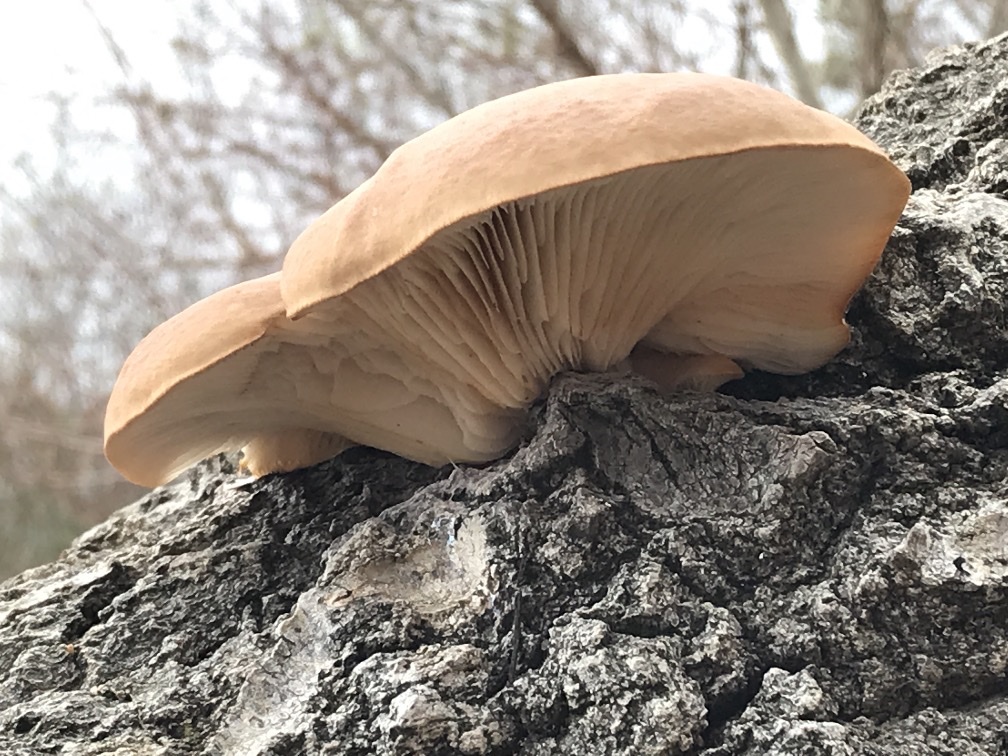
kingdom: Fungi
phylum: Basidiomycota
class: Agaricomycetes
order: Agaricales
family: Pleurotaceae
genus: Pleurotus
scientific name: Pleurotus ostreatus
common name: Oyster mushroom
